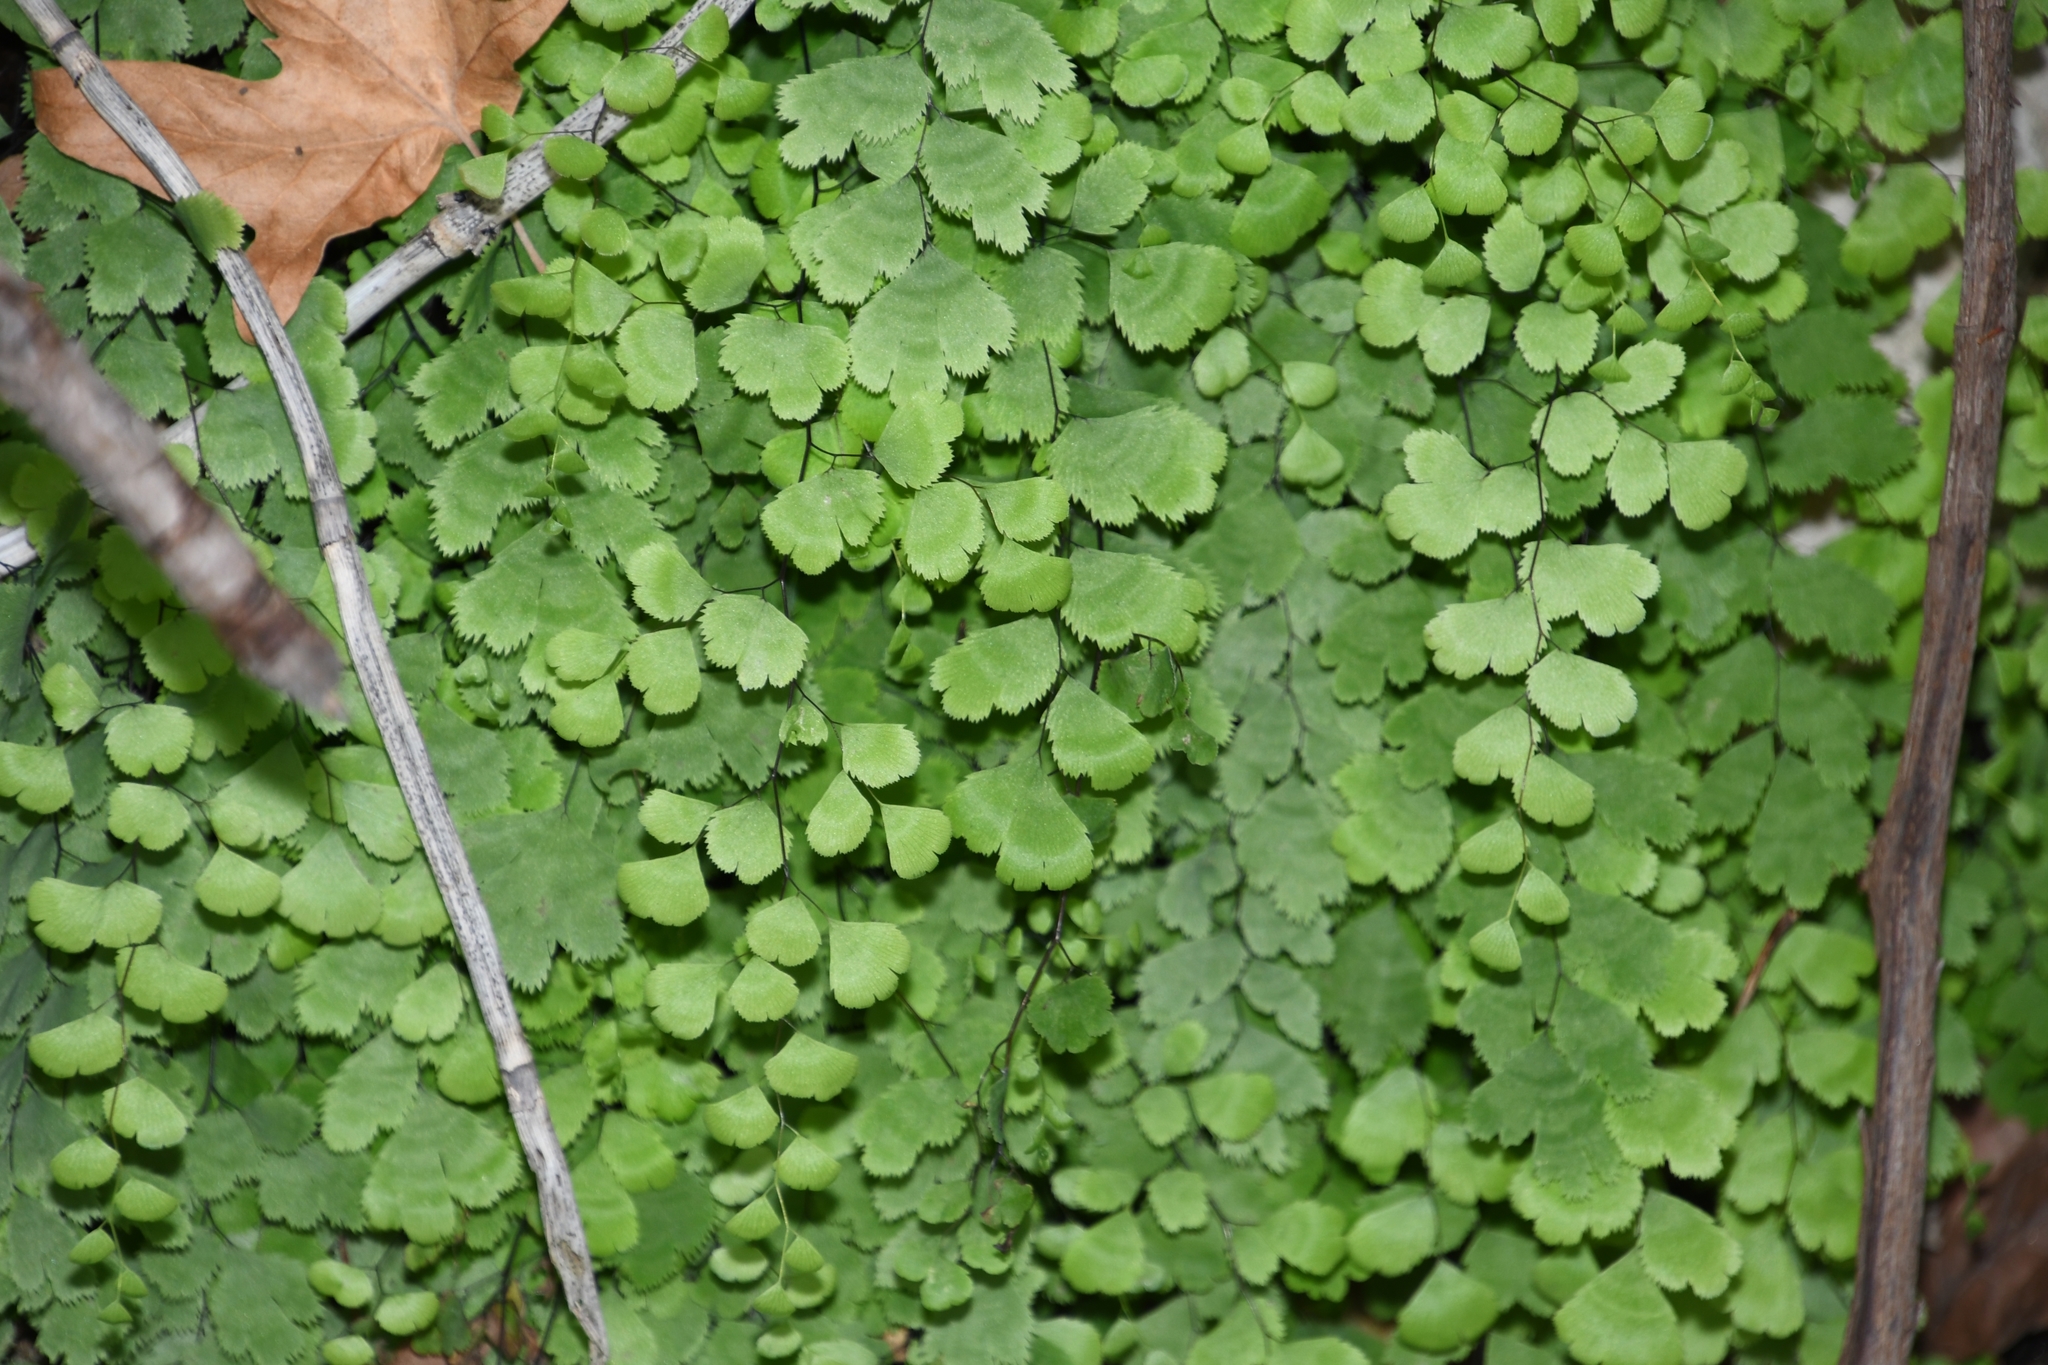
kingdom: Plantae
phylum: Tracheophyta
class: Polypodiopsida
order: Polypodiales
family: Pteridaceae
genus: Adiantum
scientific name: Adiantum capillus-veneris
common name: Maidenhair fern
